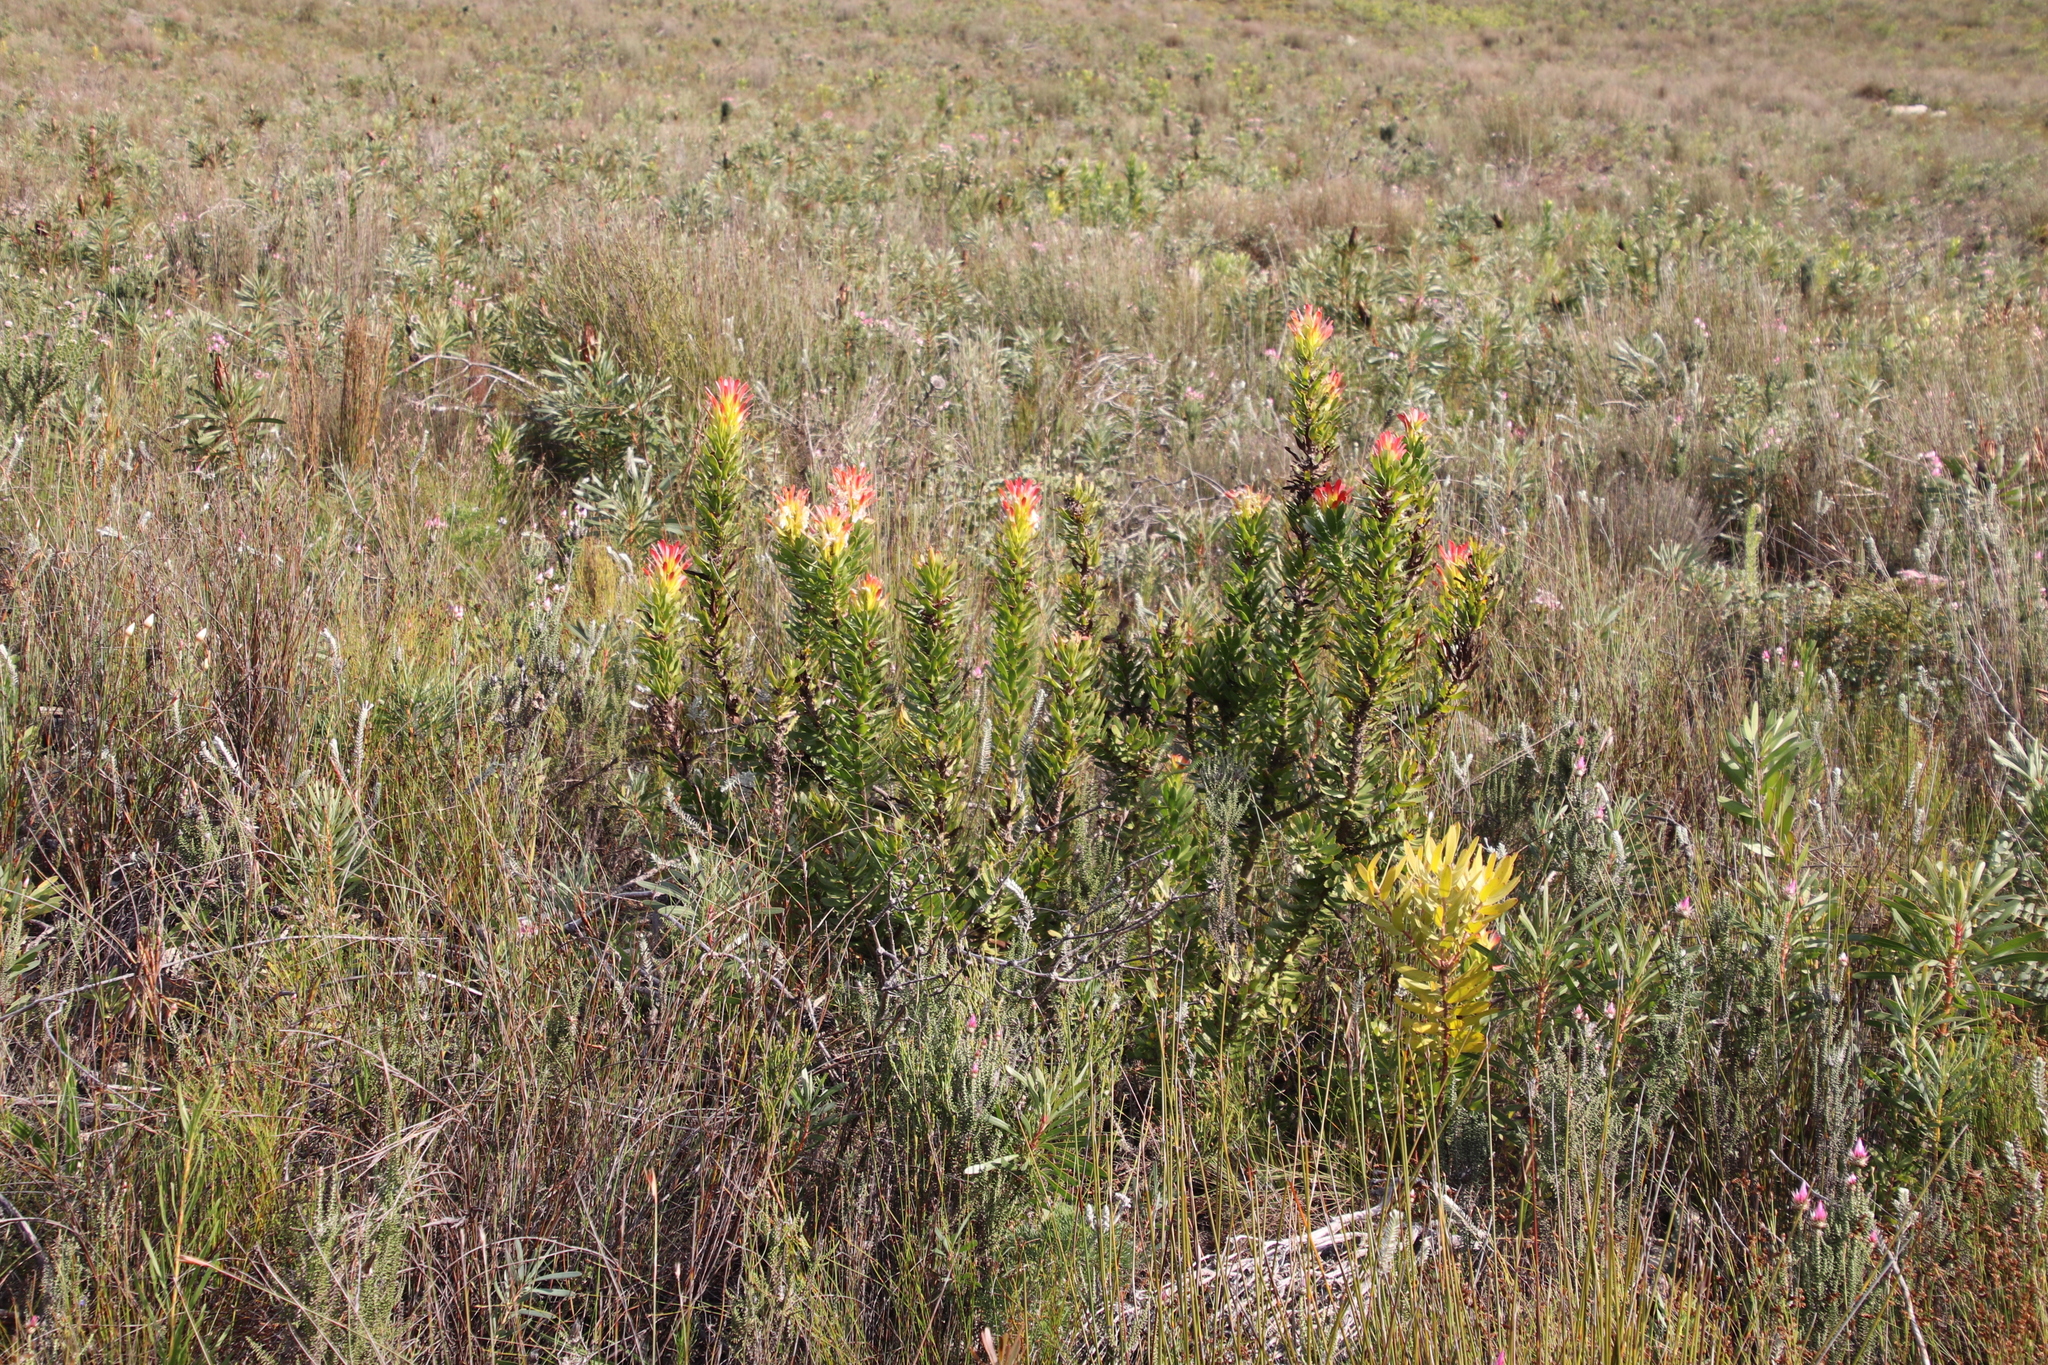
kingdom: Plantae
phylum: Tracheophyta
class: Magnoliopsida
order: Proteales
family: Proteaceae
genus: Mimetes
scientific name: Mimetes cucullatus
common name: Common pagoda
